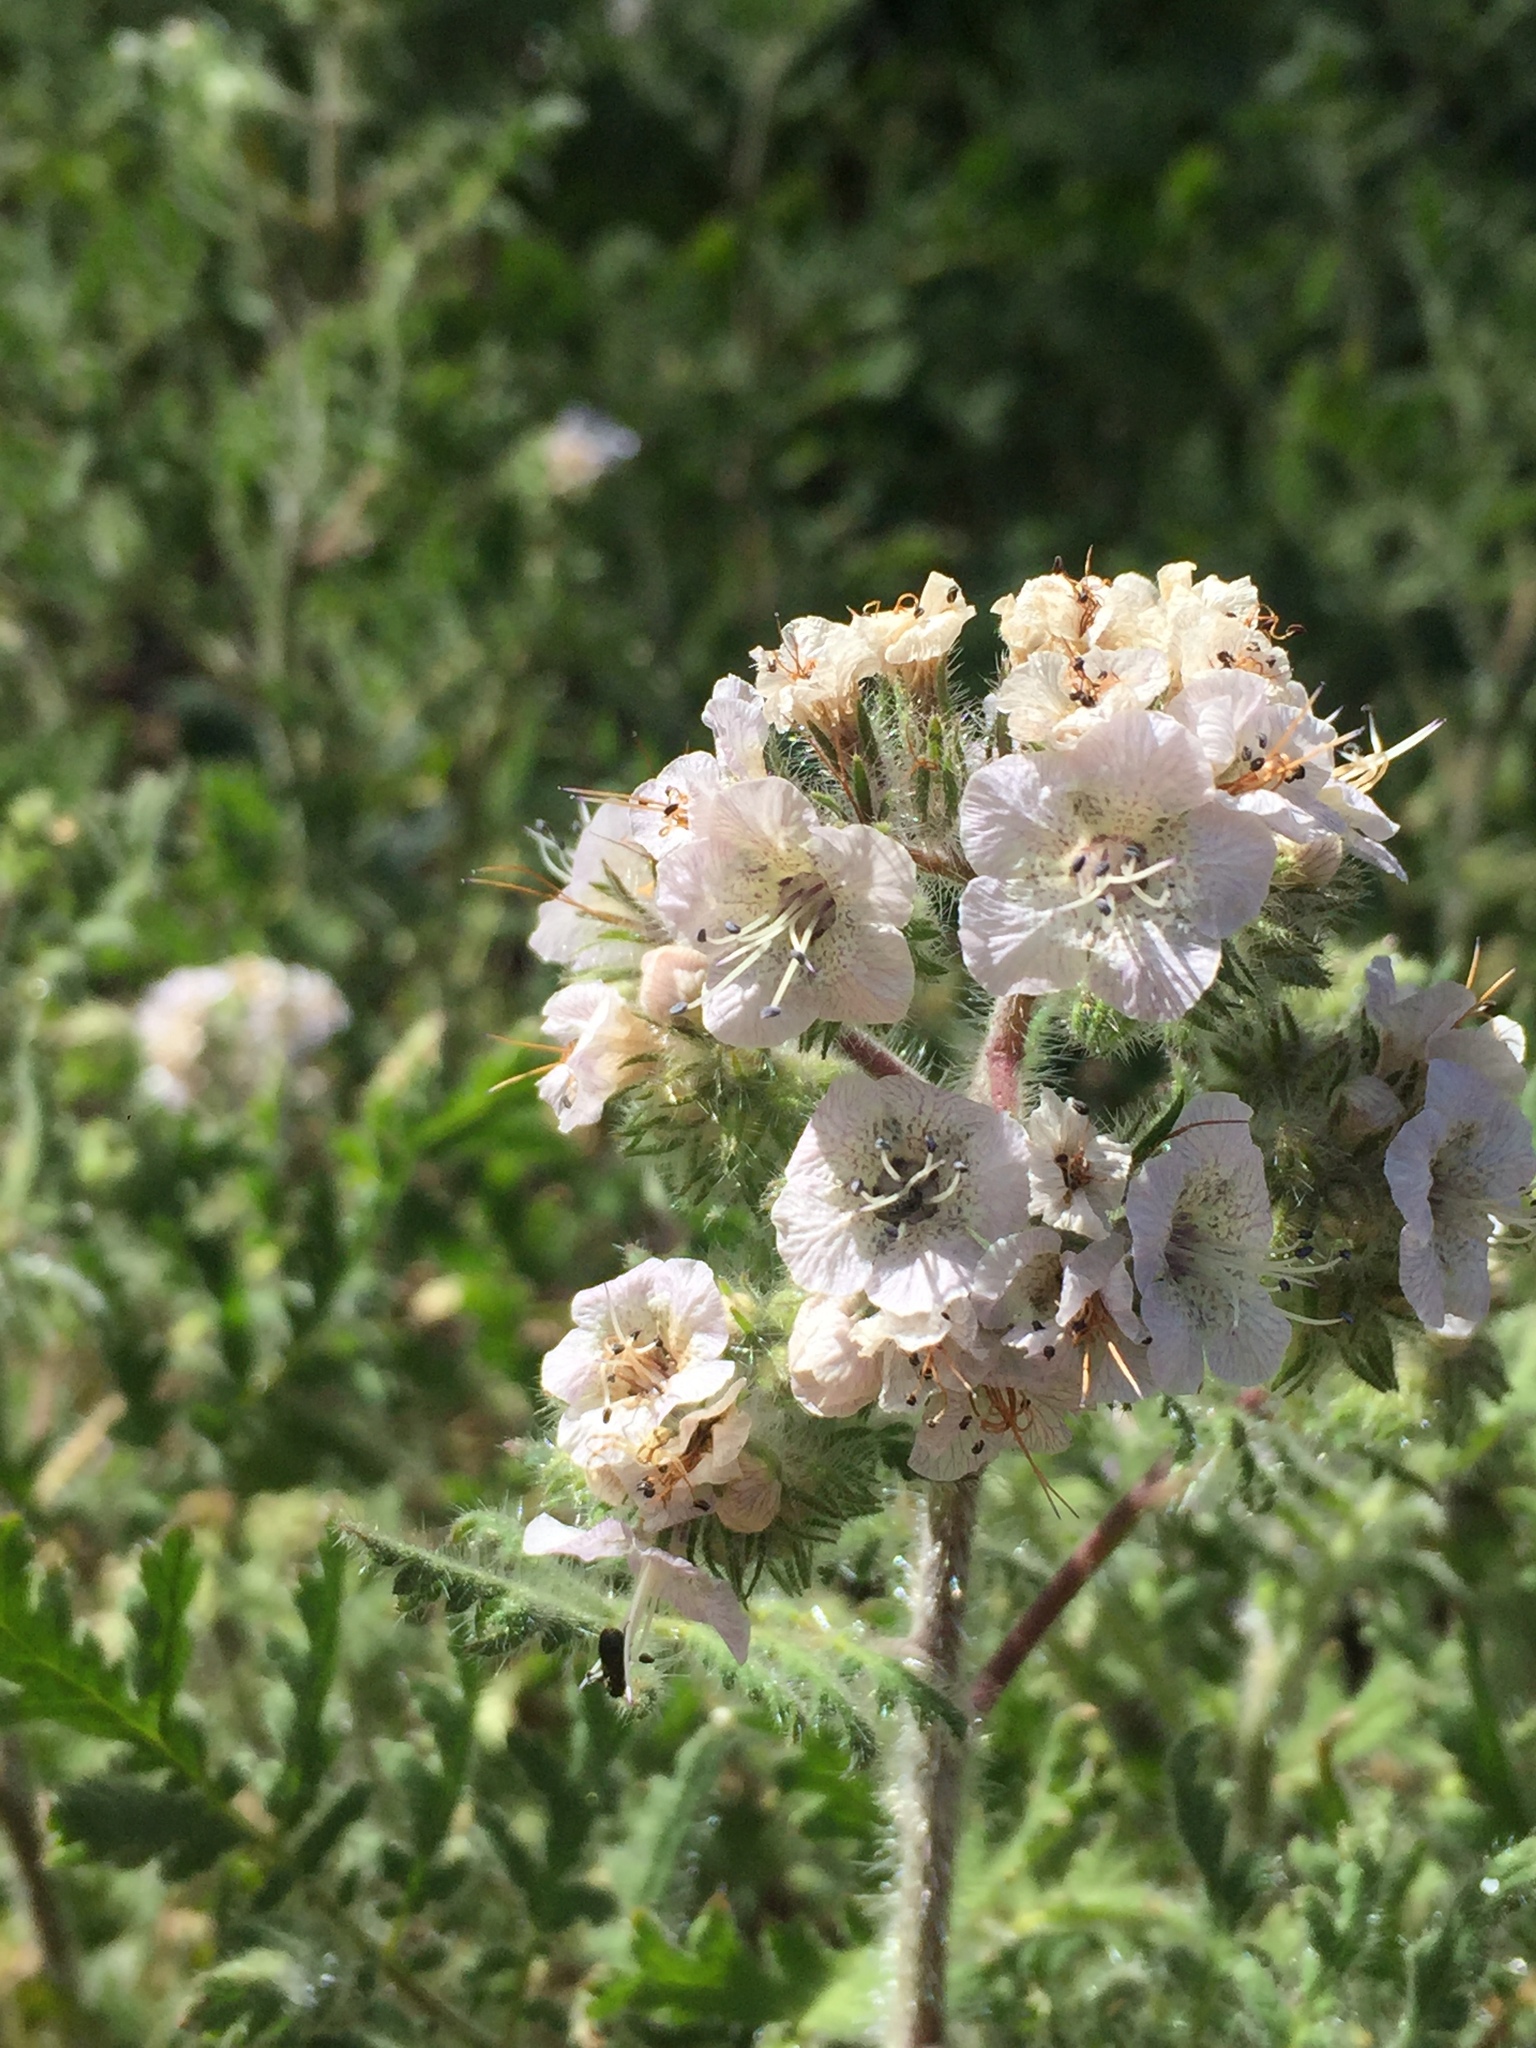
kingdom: Plantae
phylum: Tracheophyta
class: Magnoliopsida
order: Boraginales
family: Hydrophyllaceae
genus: Phacelia
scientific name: Phacelia cicutaria
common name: Caterpillar phacelia
